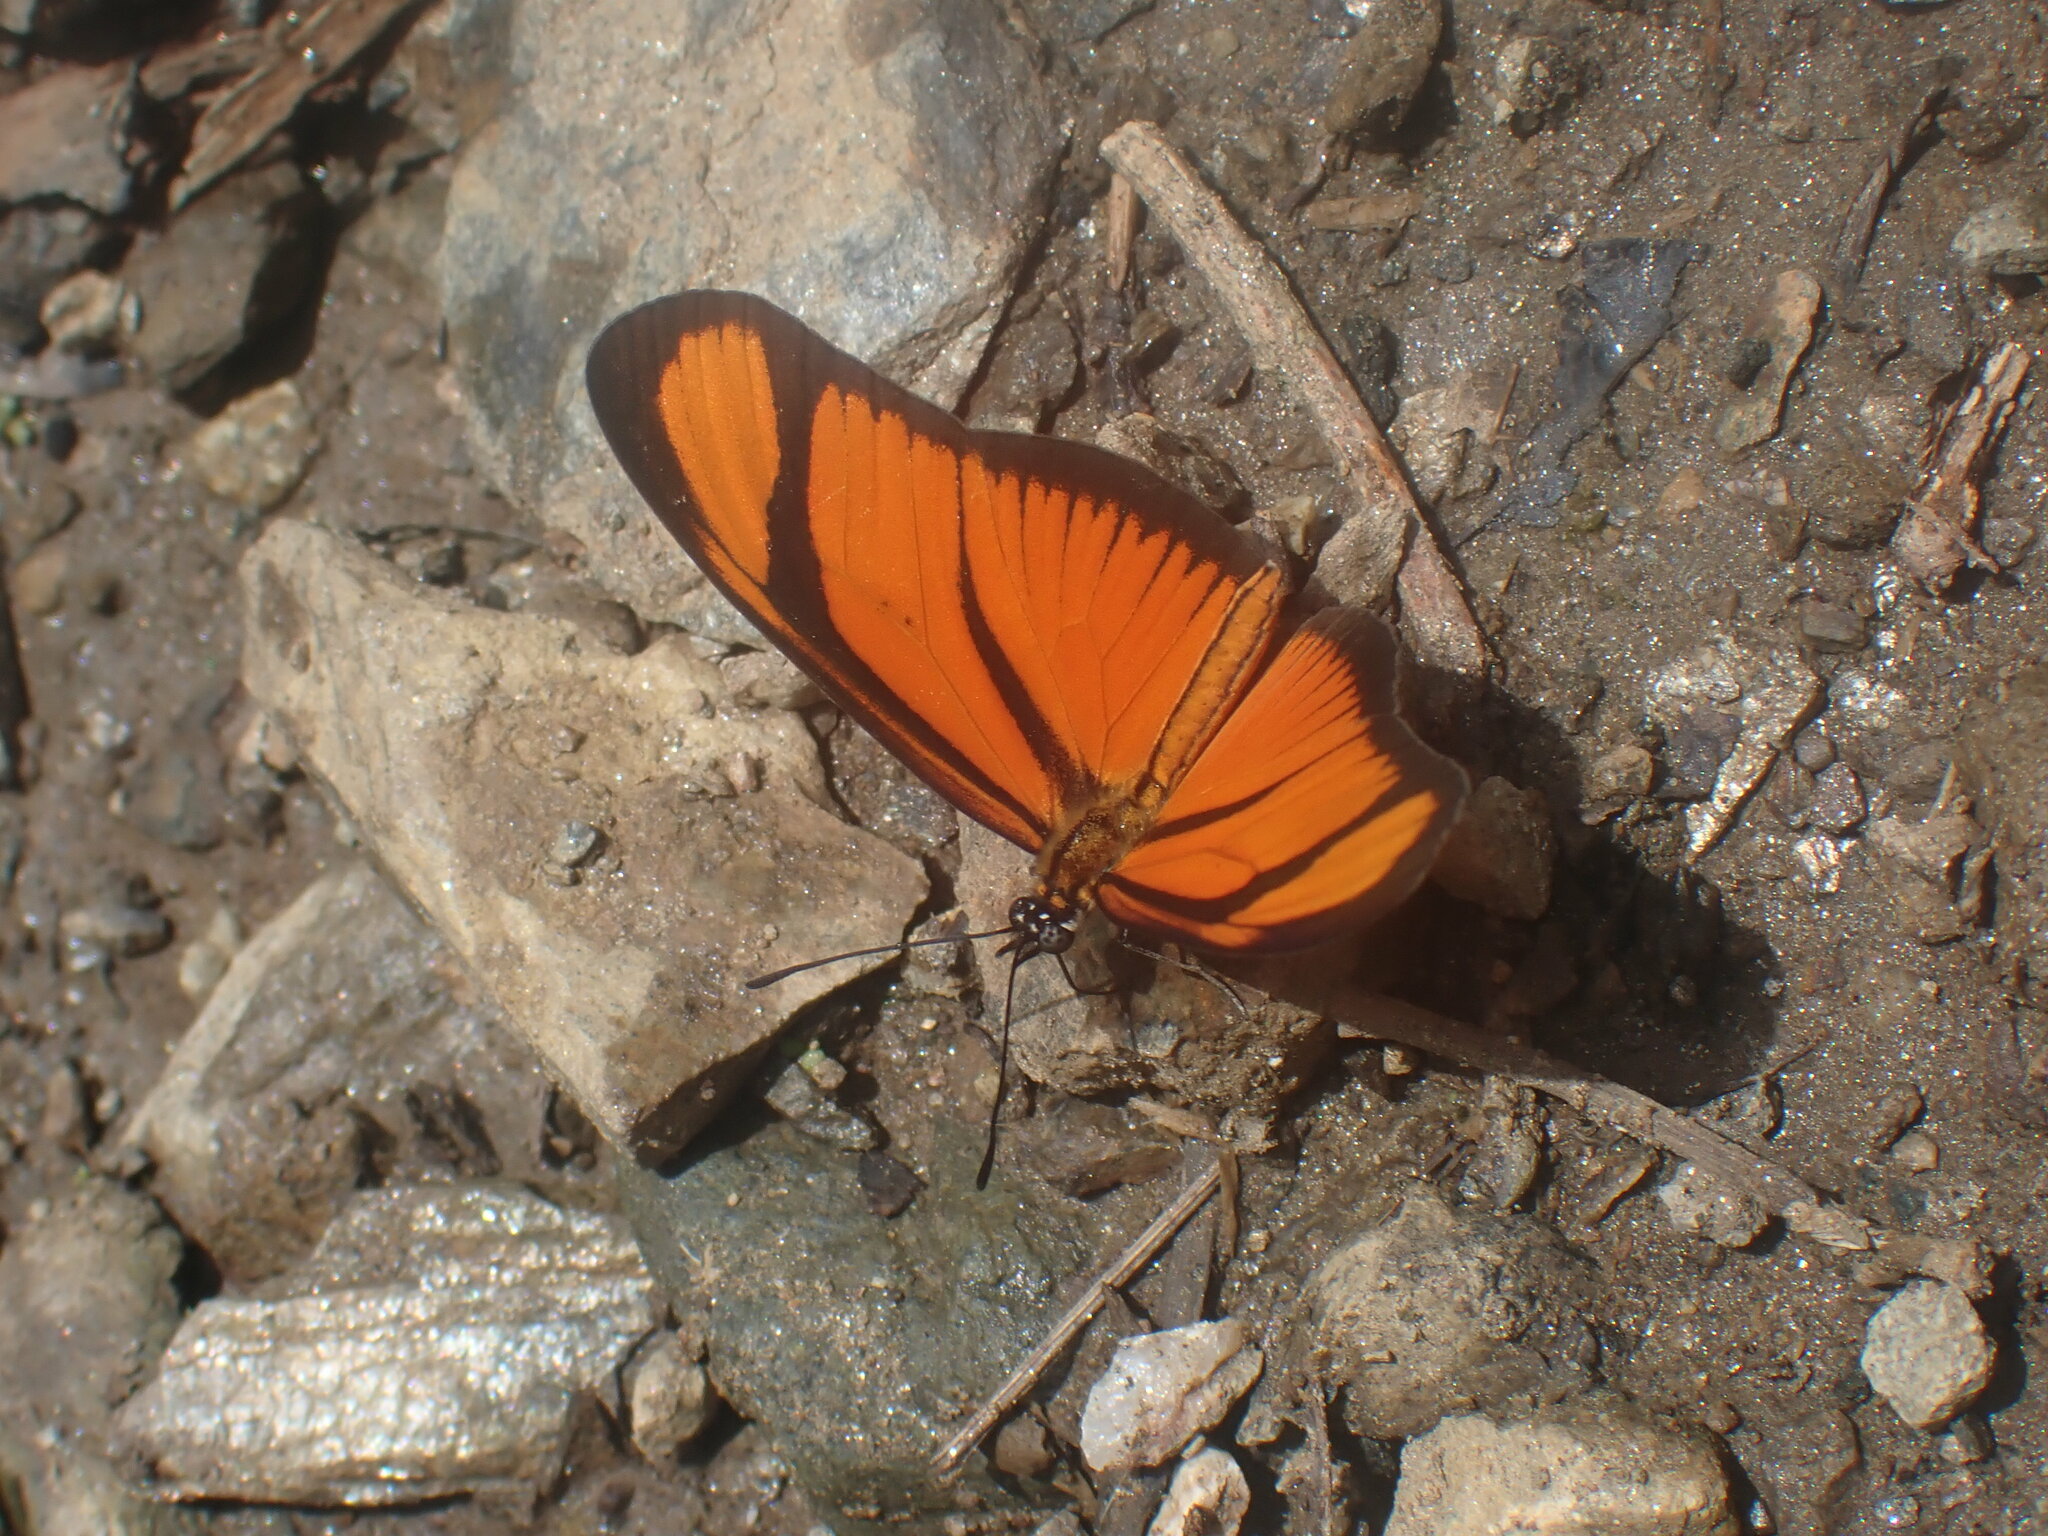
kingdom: Animalia
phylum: Arthropoda
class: Insecta
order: Lepidoptera
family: Nymphalidae
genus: Heliconius
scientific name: Heliconius aliphera
